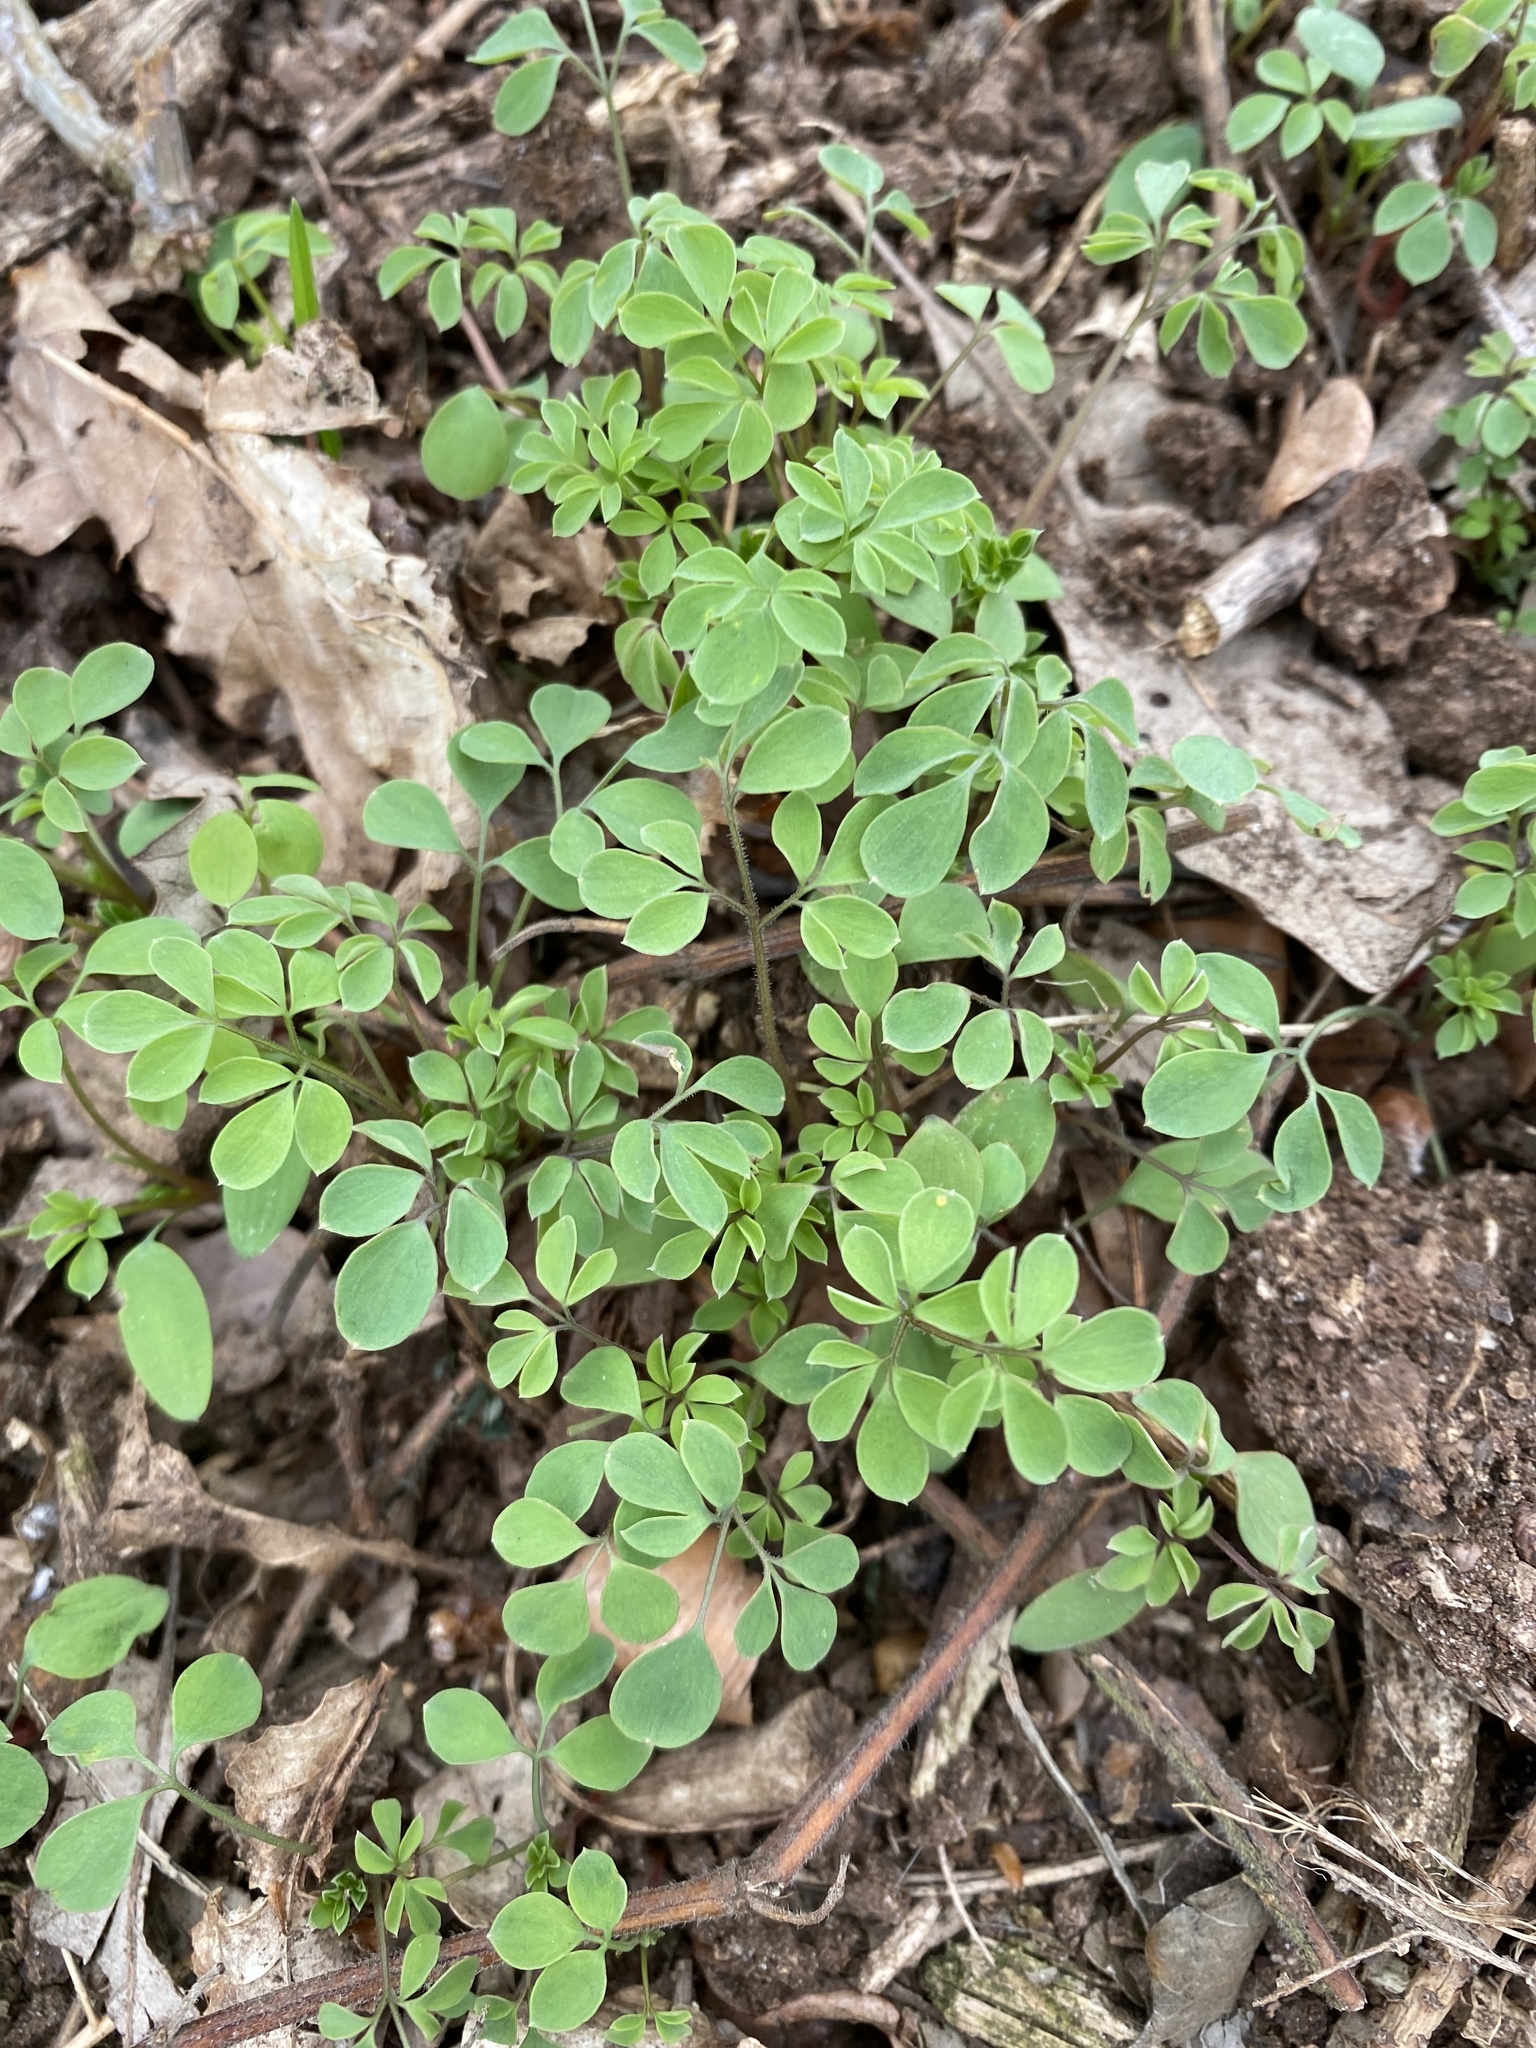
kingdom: Plantae
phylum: Tracheophyta
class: Magnoliopsida
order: Ranunculales
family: Papaveraceae
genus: Ceratocapnos
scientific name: Ceratocapnos claviculata
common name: Climbing corydalis
